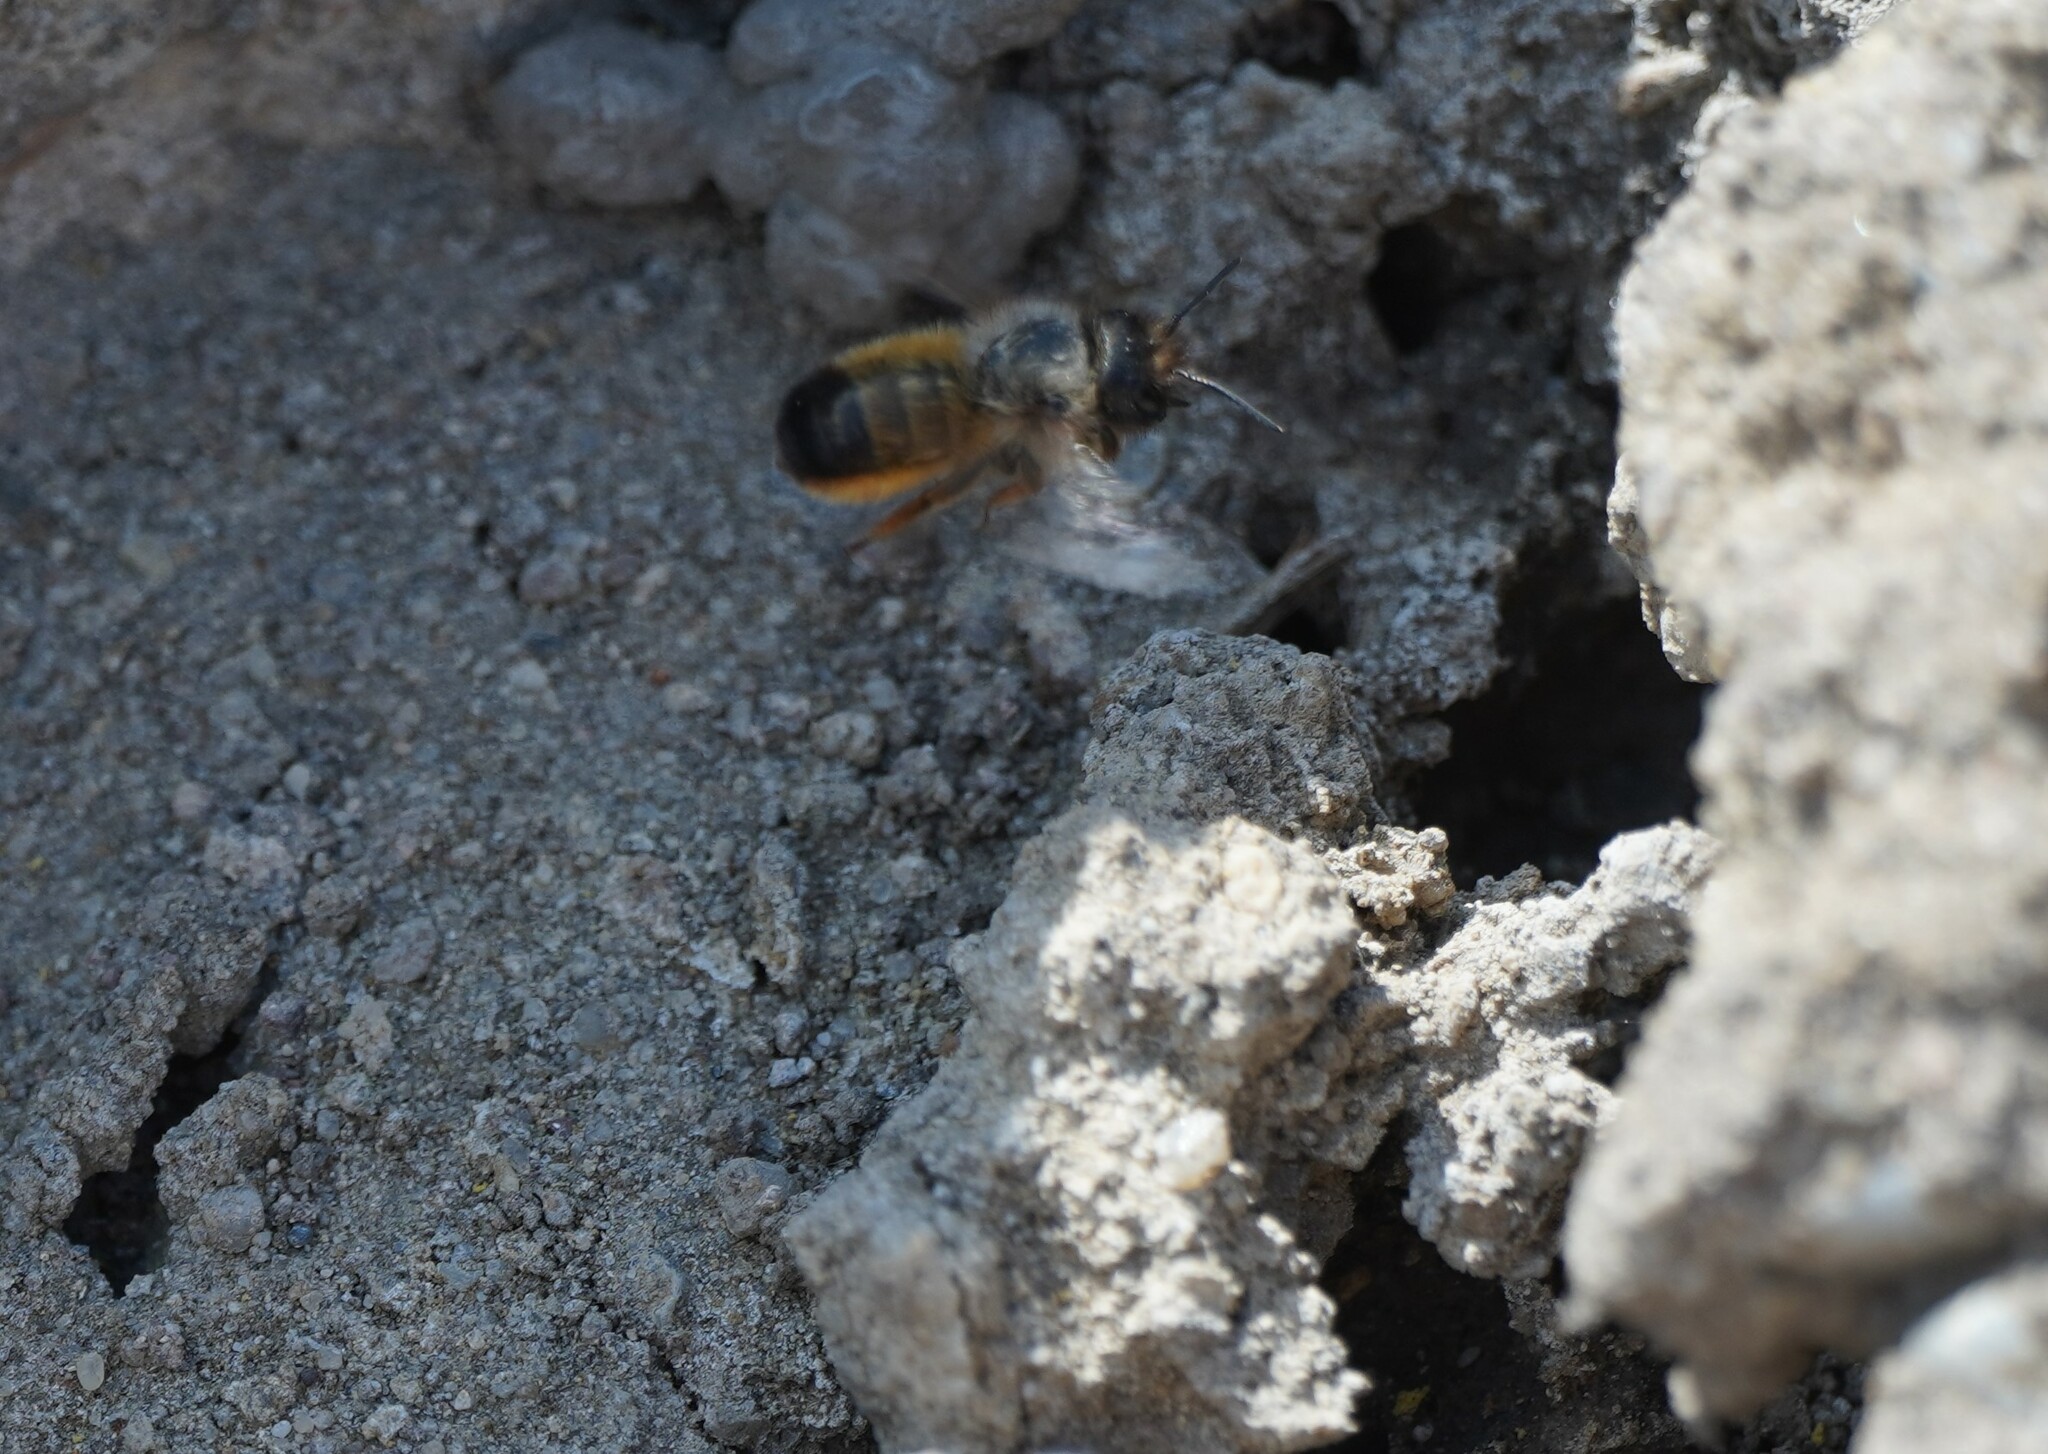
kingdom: Animalia
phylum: Arthropoda
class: Insecta
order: Hymenoptera
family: Megachilidae
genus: Osmia
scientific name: Osmia bicornis
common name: Red mason bee
